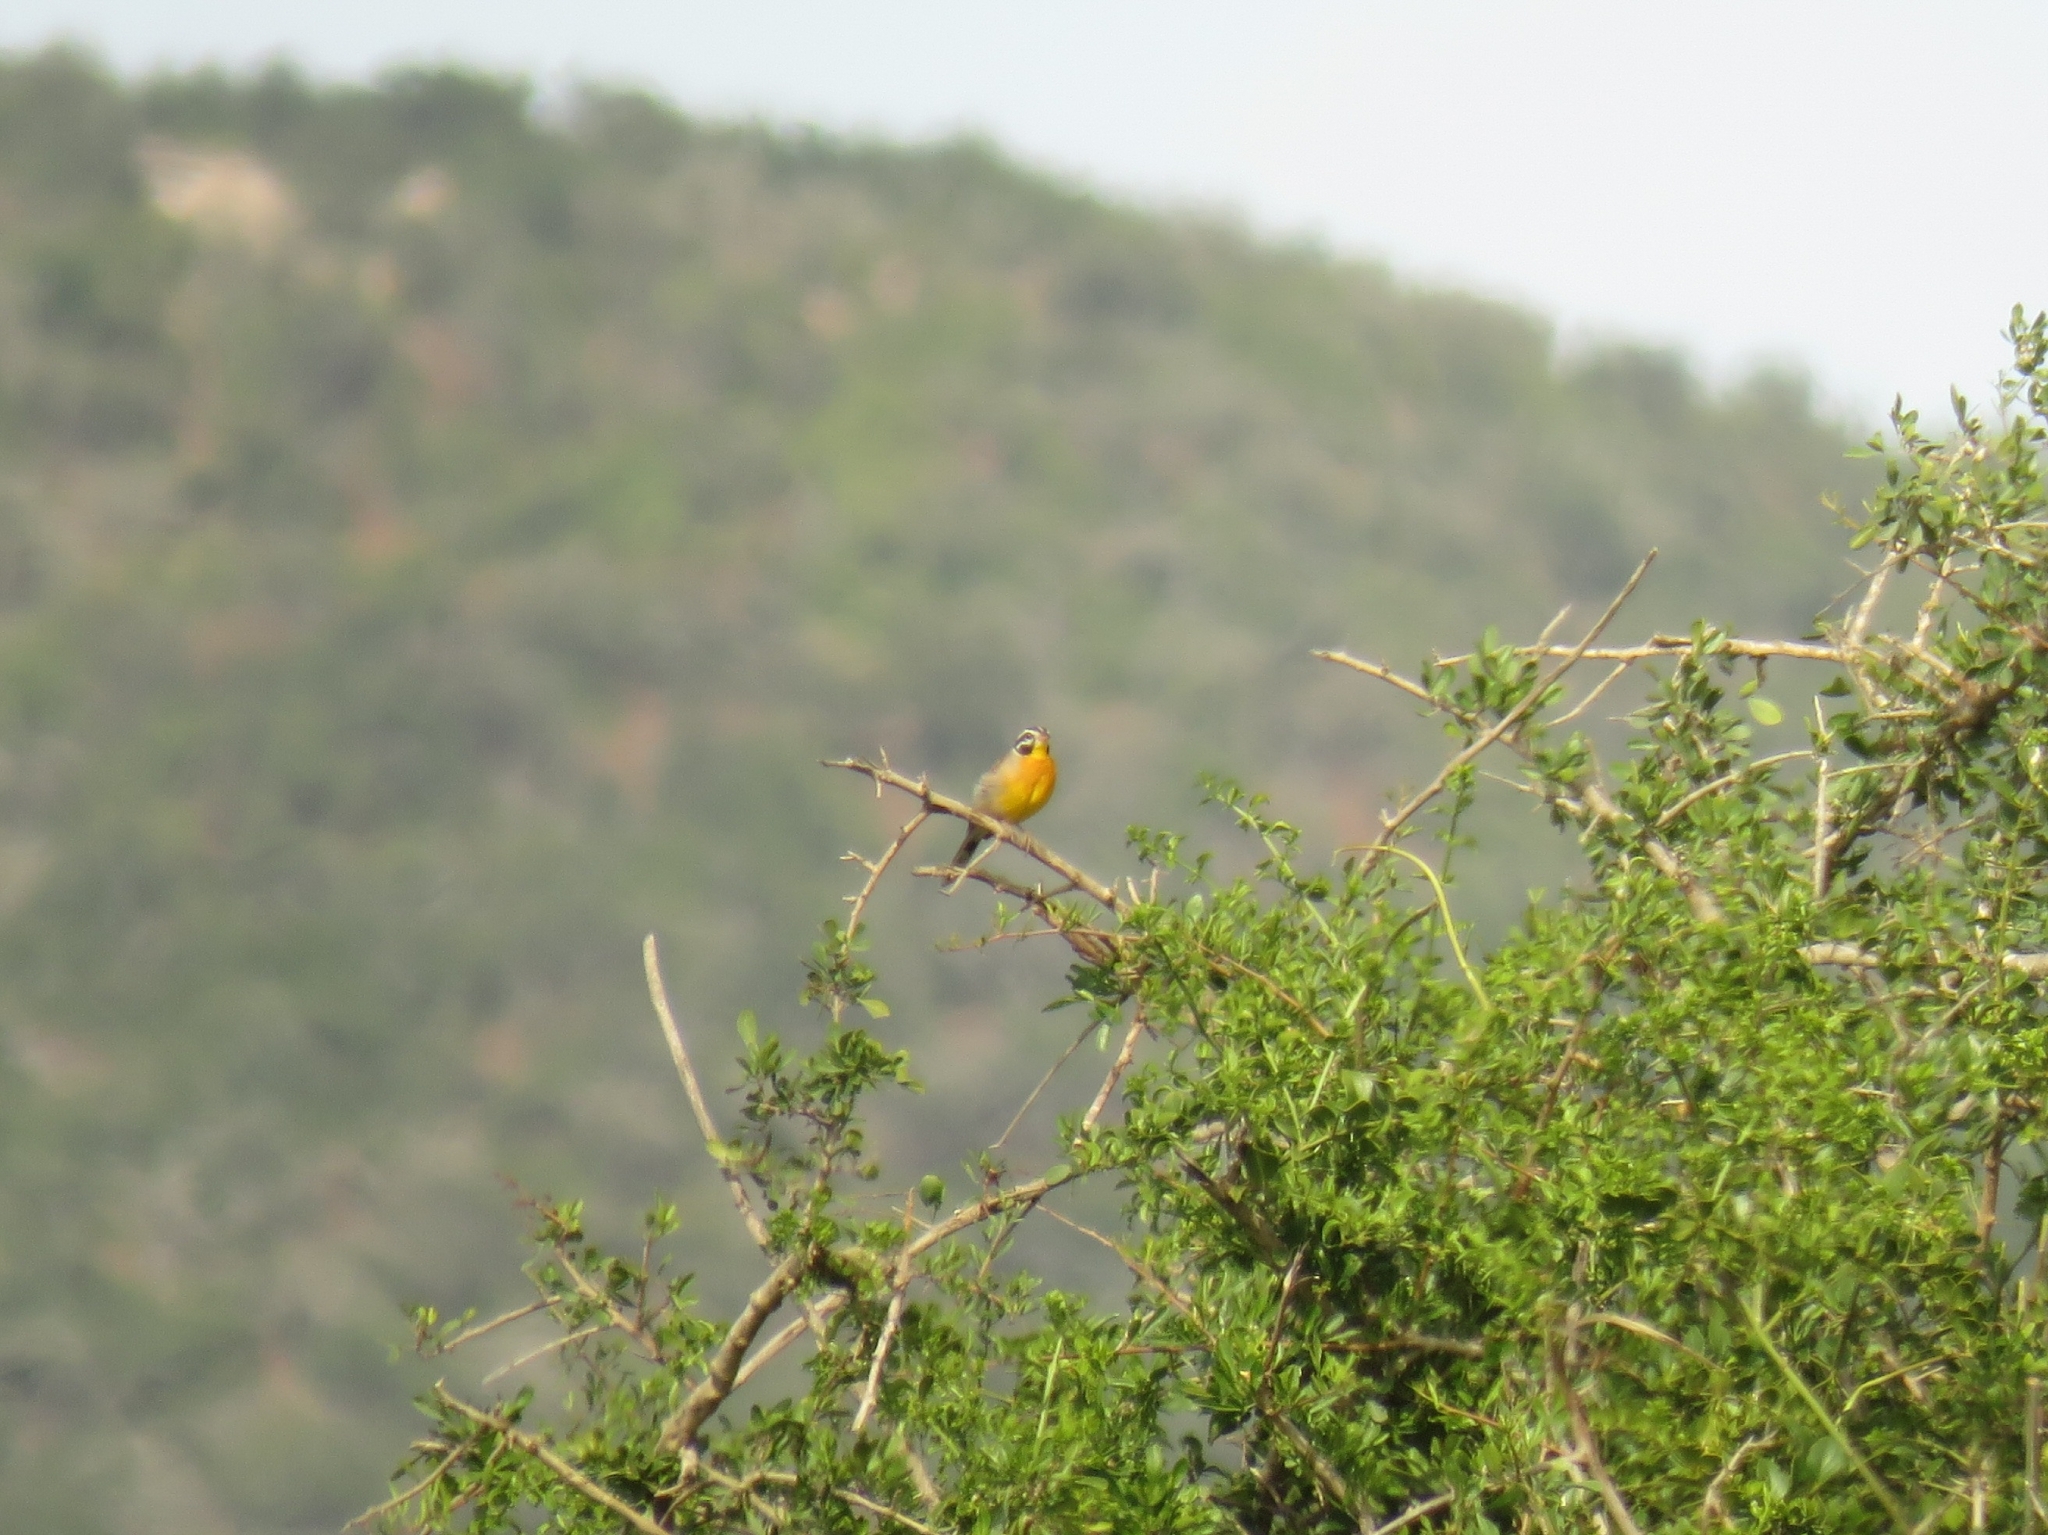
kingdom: Animalia
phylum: Chordata
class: Aves
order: Passeriformes
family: Emberizidae
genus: Emberiza
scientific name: Emberiza flaviventris
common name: Golden-breasted bunting
